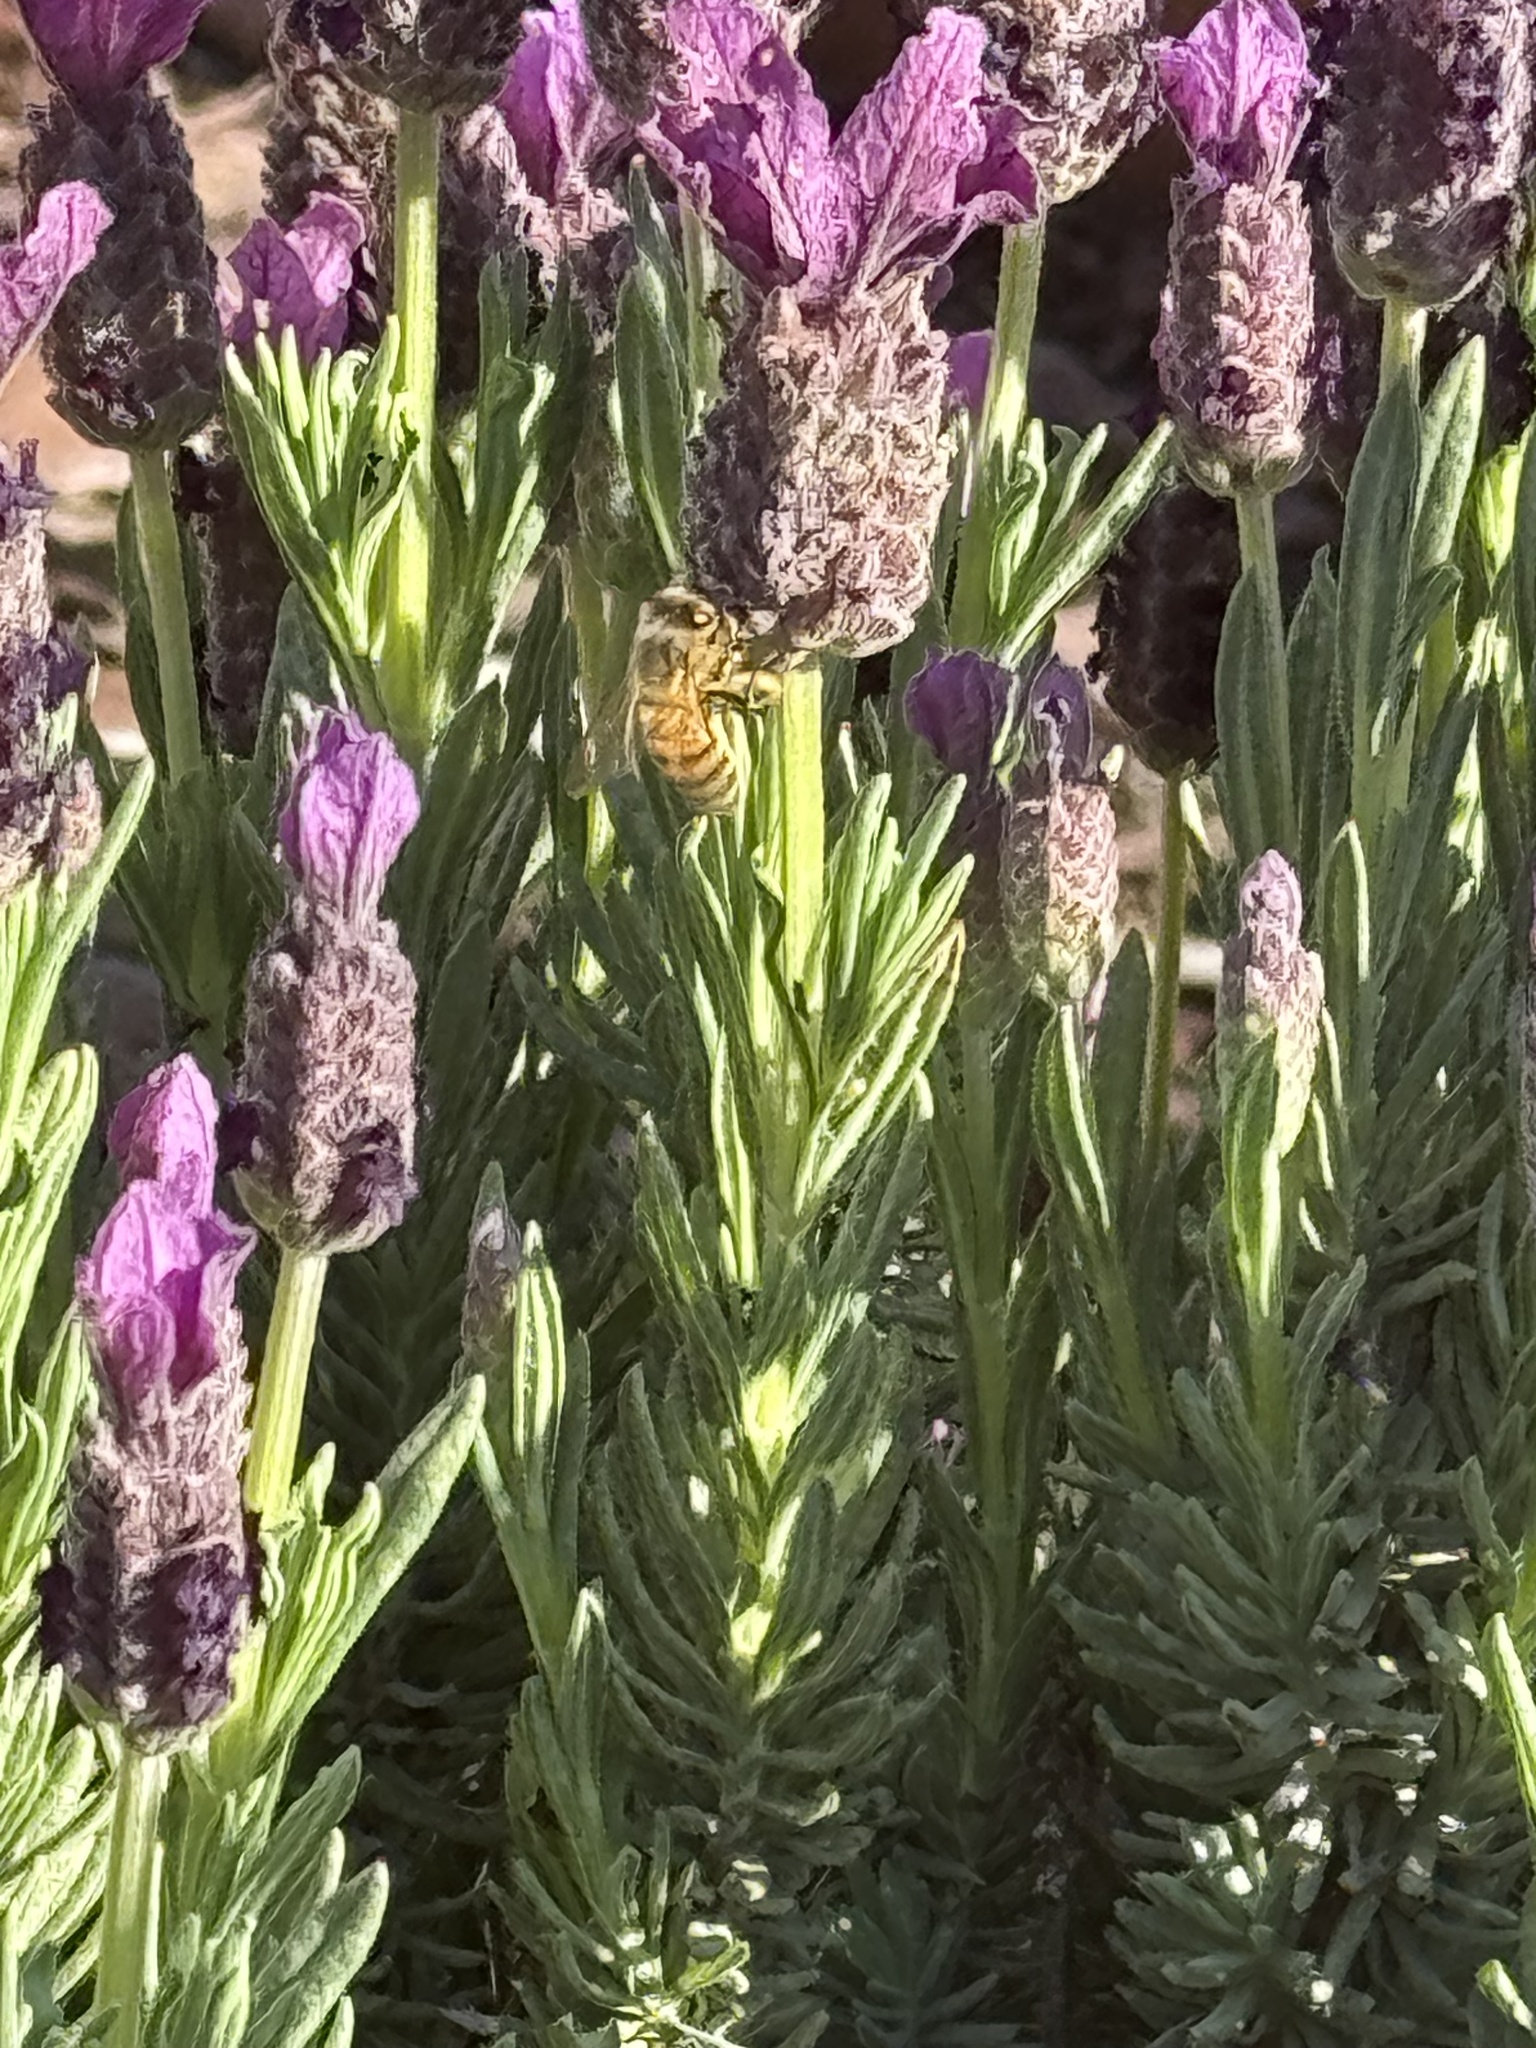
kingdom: Animalia
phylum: Arthropoda
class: Insecta
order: Hymenoptera
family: Apidae
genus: Apis
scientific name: Apis mellifera
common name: Honey bee
